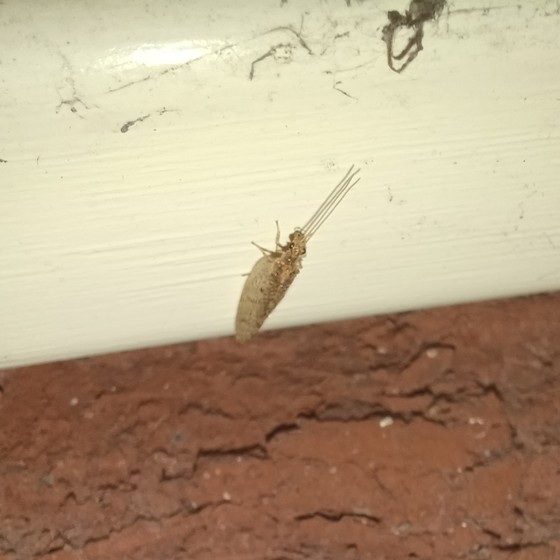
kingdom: Animalia
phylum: Arthropoda
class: Insecta
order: Neuroptera
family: Hemerobiidae
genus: Micromus
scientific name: Micromus posticus
